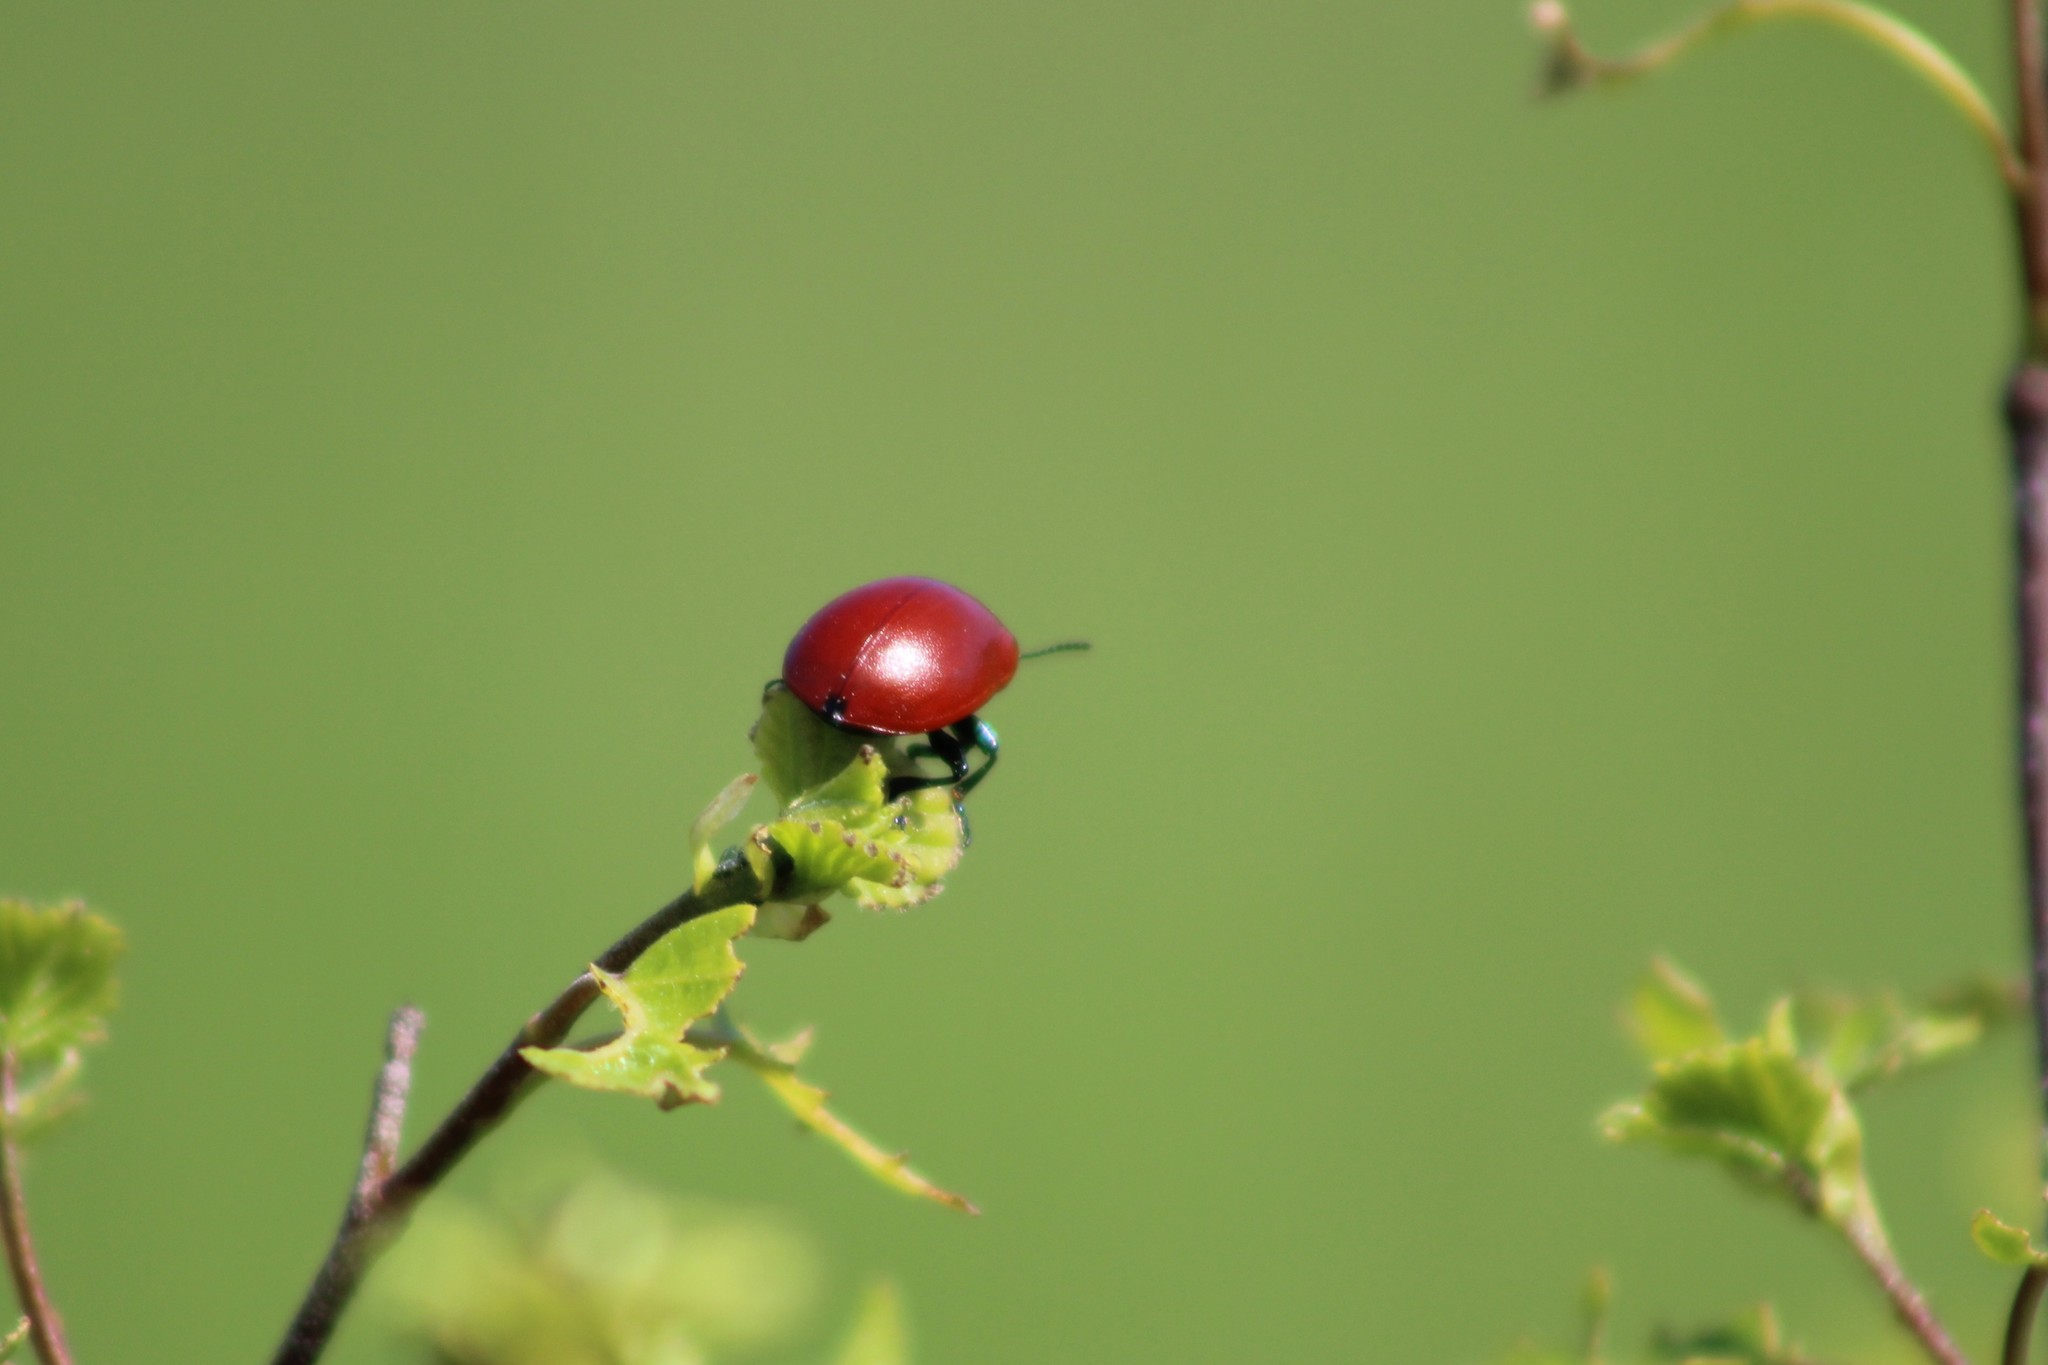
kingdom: Animalia
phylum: Arthropoda
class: Insecta
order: Coleoptera
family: Chrysomelidae
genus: Chrysomela
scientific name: Chrysomela populi
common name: Red poplar leaf beetle
